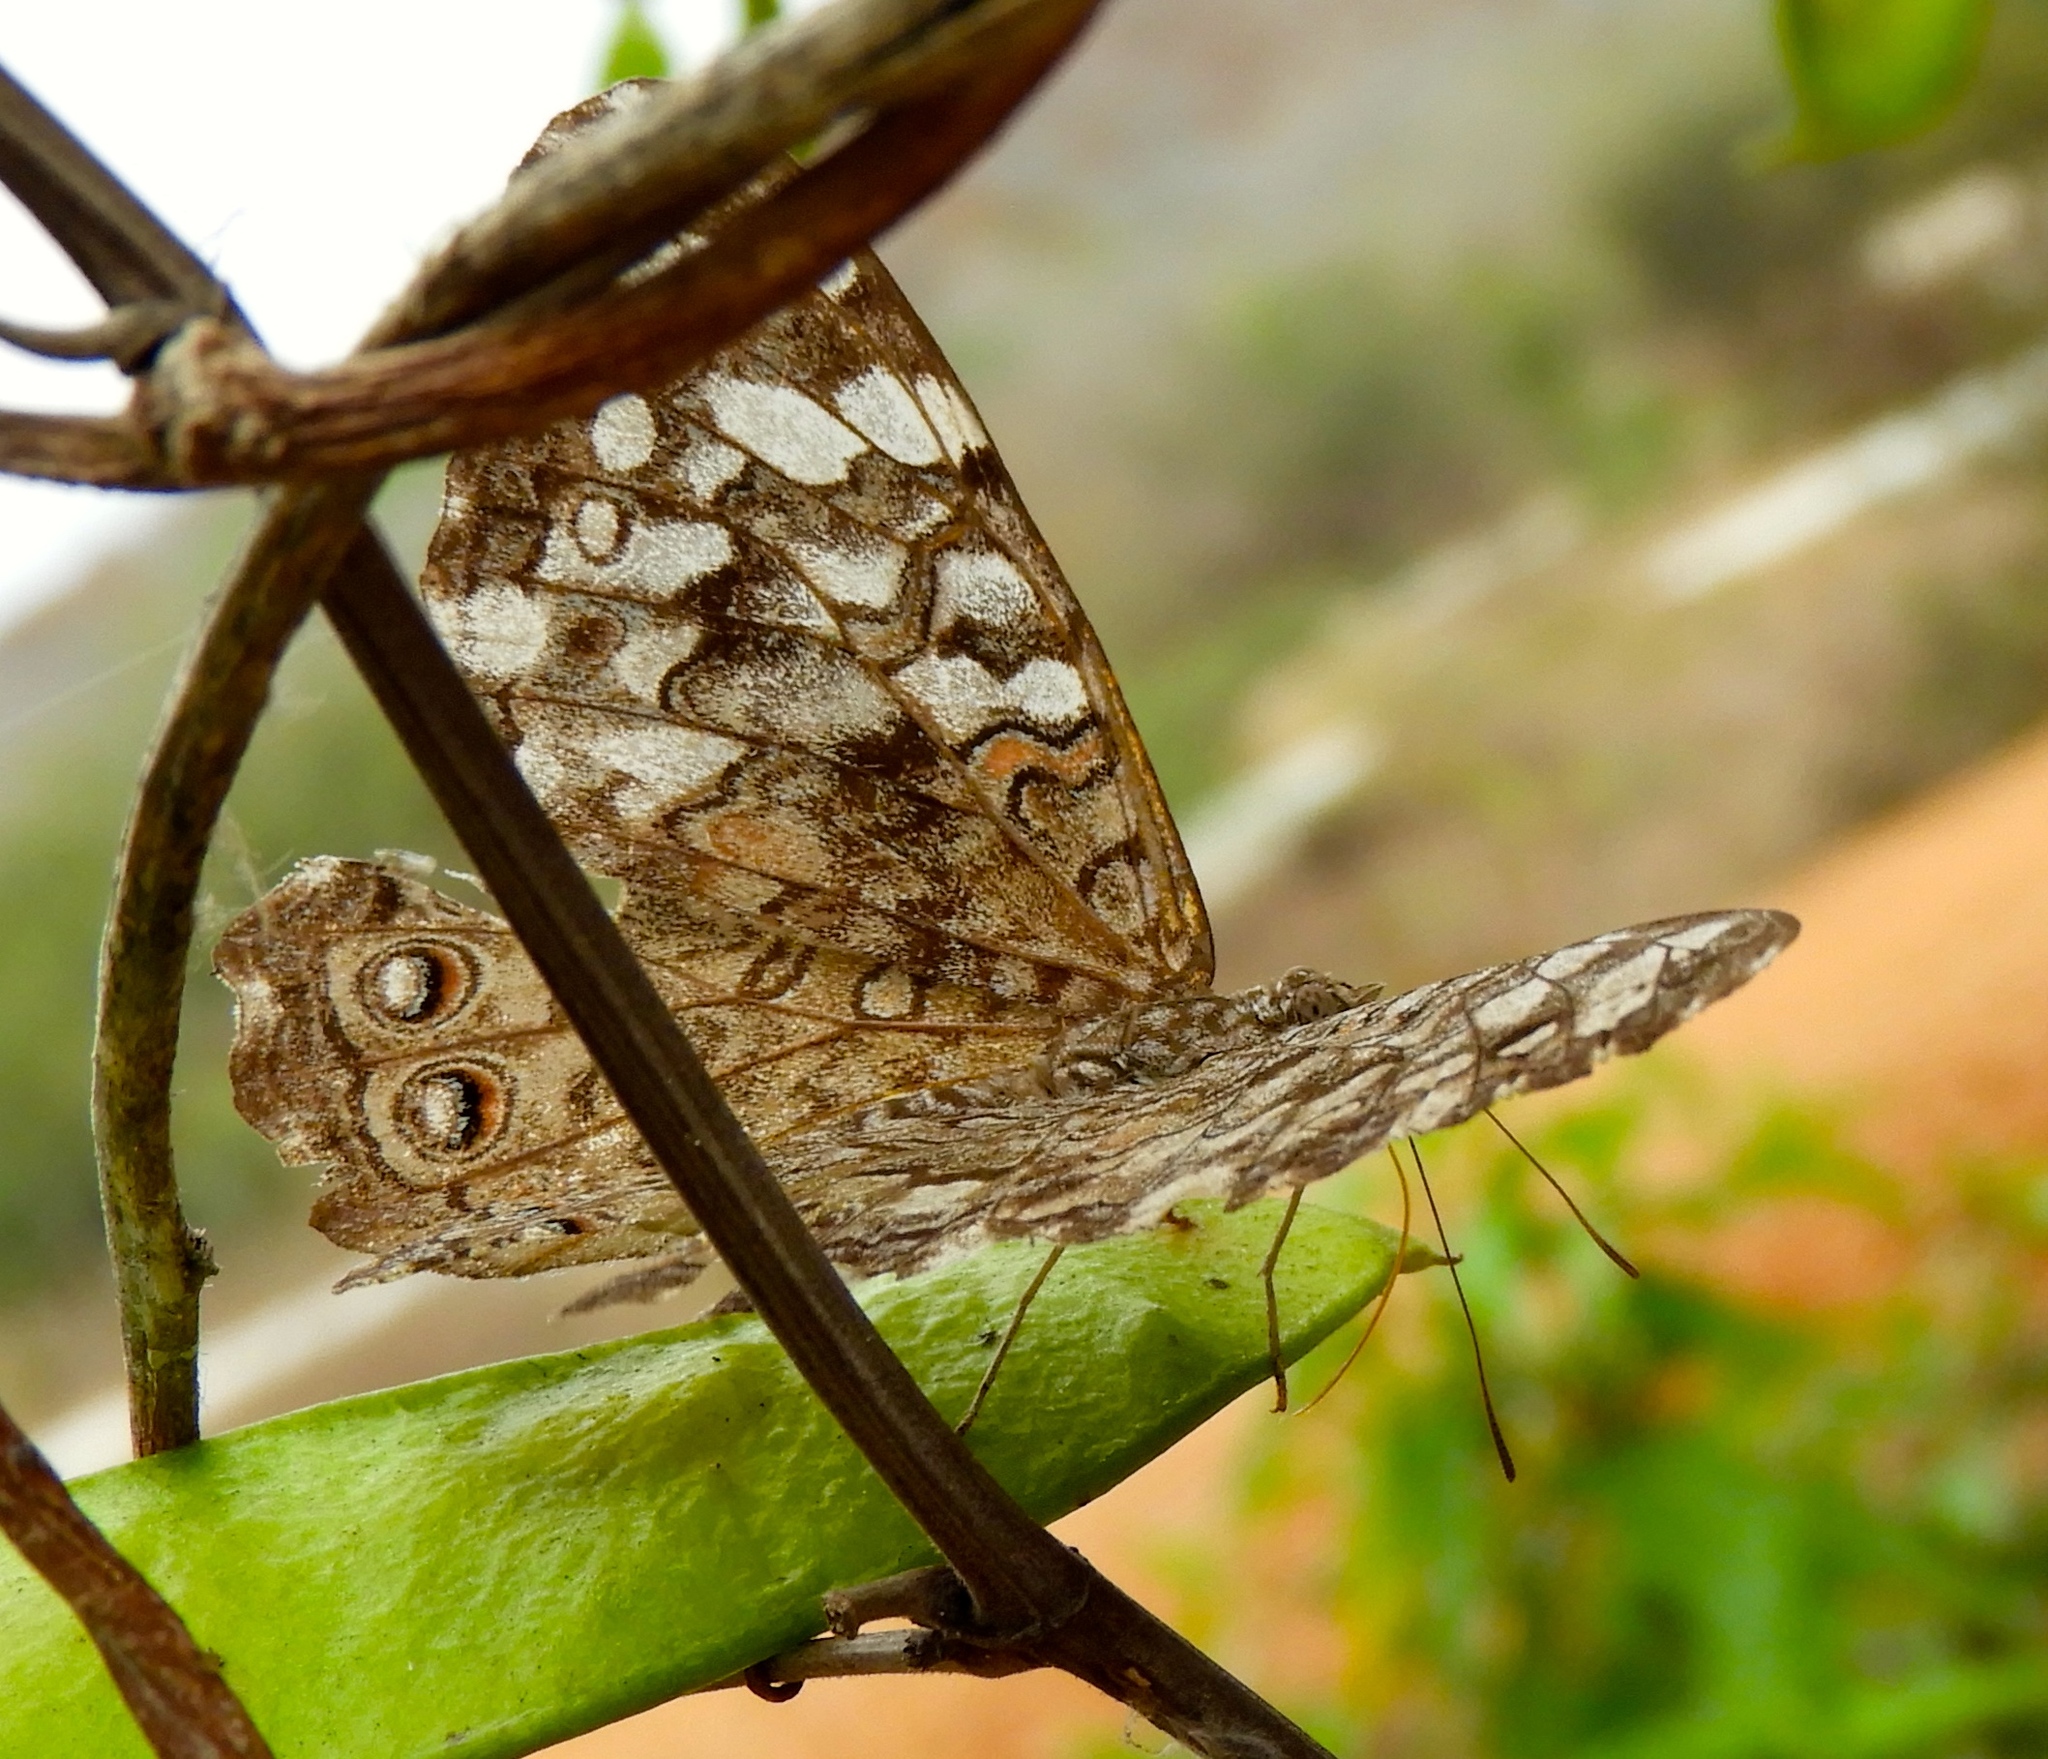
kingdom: Animalia
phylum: Arthropoda
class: Insecta
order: Lepidoptera
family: Nymphalidae
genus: Hamadryas
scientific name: Hamadryas februa
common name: Gray cracker
